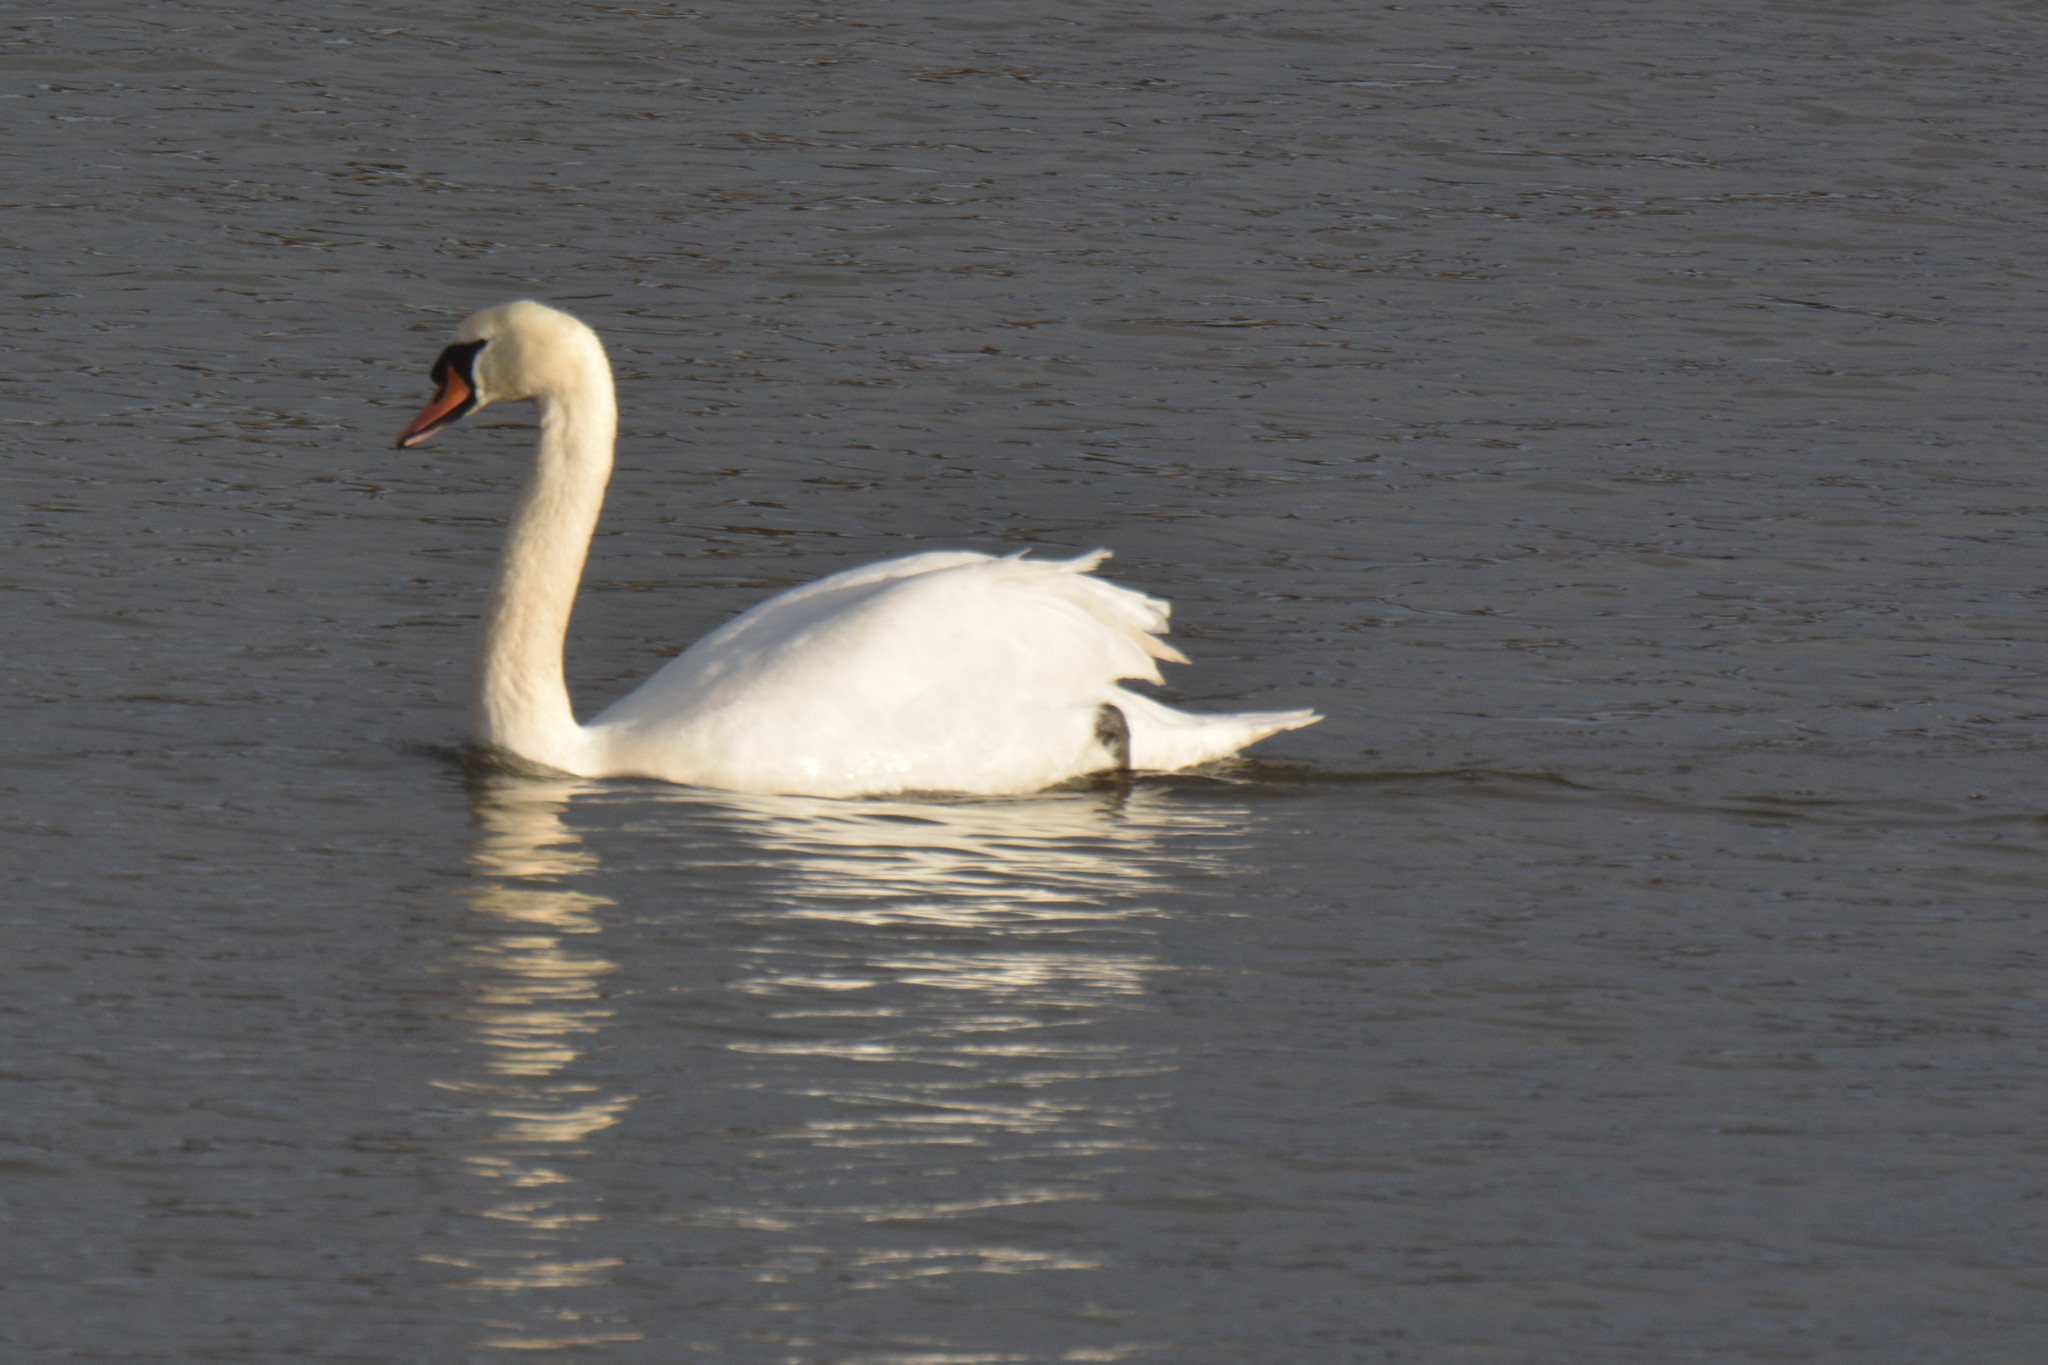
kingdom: Animalia
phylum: Chordata
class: Aves
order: Anseriformes
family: Anatidae
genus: Cygnus
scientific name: Cygnus olor
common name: Mute swan
